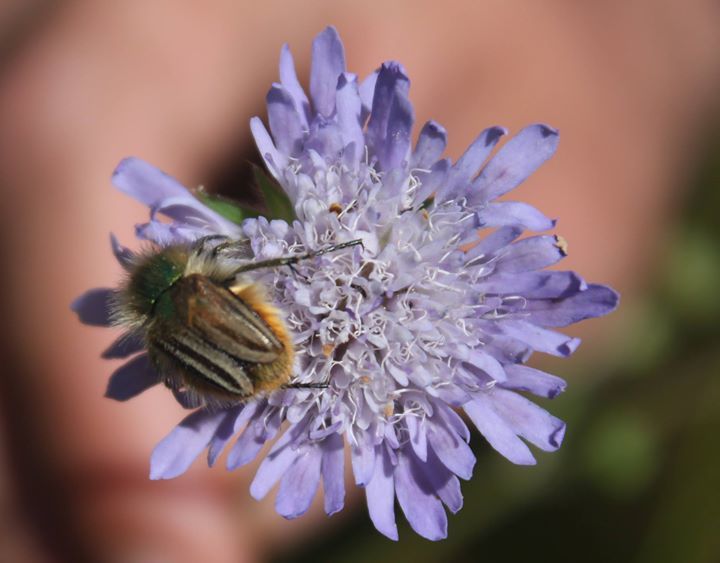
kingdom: Animalia
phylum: Arthropoda
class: Insecta
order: Coleoptera
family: Scarabaeidae
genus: Tropinota
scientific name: Tropinota hirta
